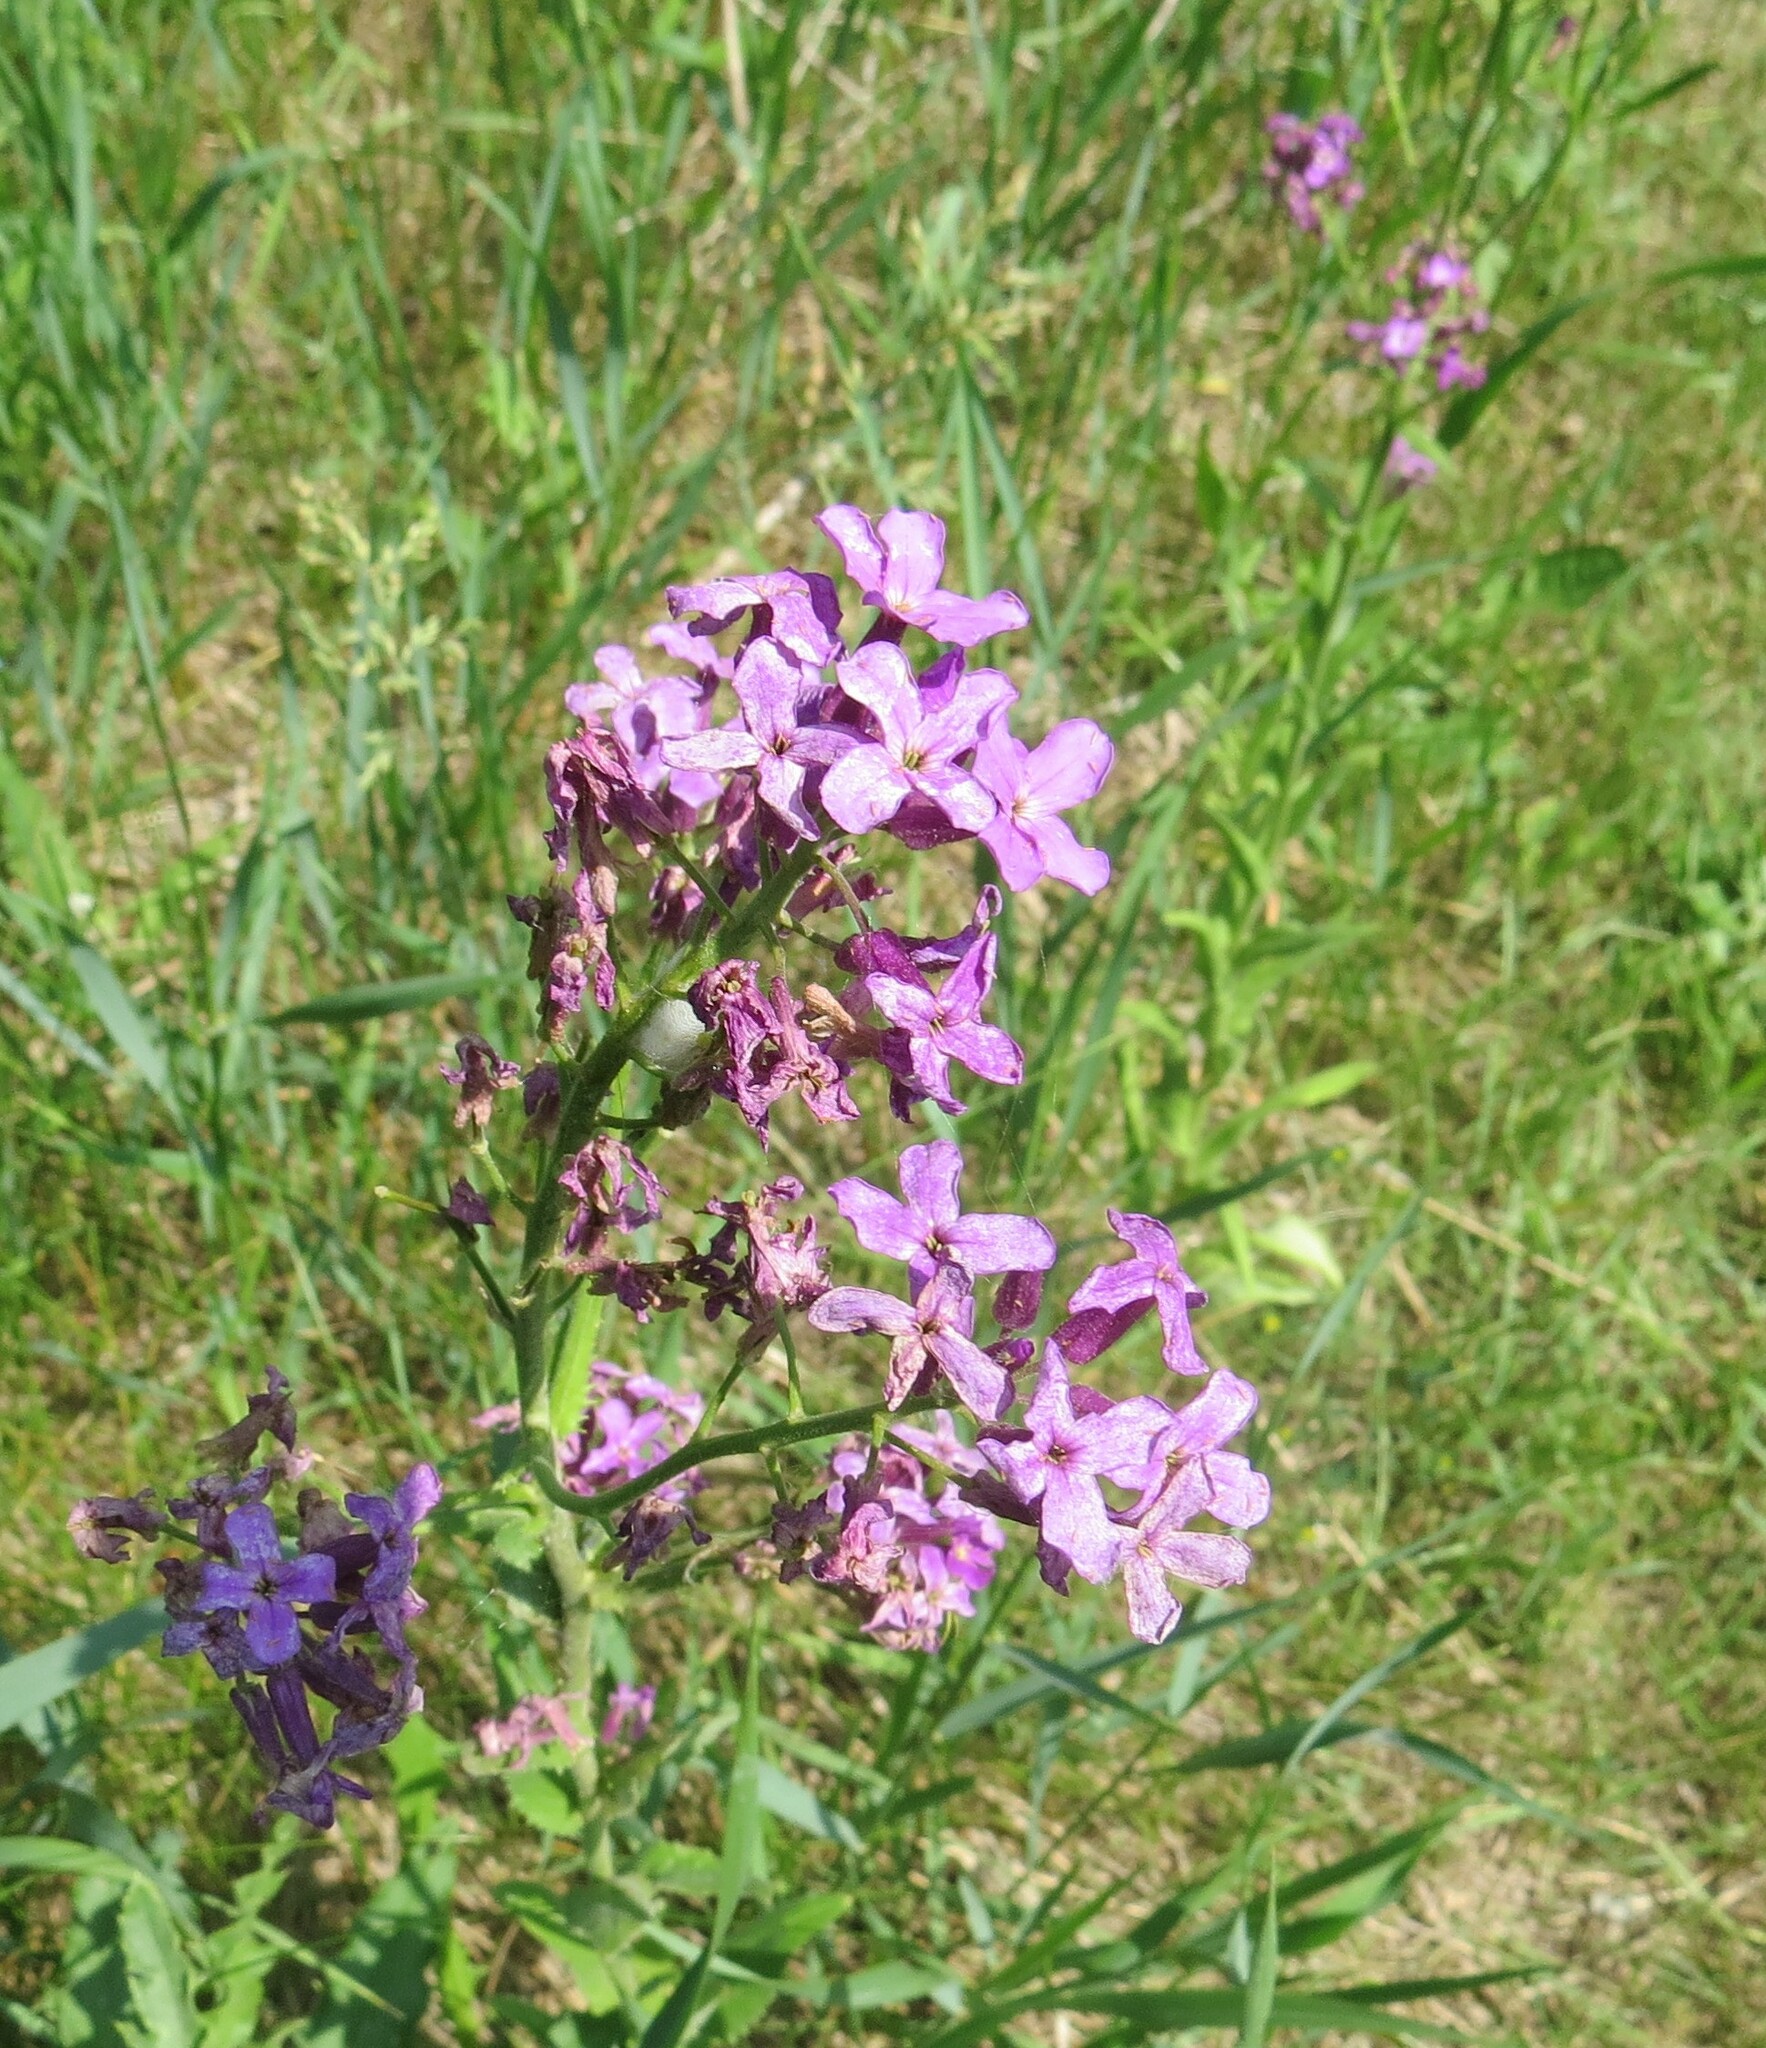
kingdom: Plantae
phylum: Tracheophyta
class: Magnoliopsida
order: Brassicales
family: Brassicaceae
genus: Hesperis
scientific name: Hesperis matronalis
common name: Dame's-violet
